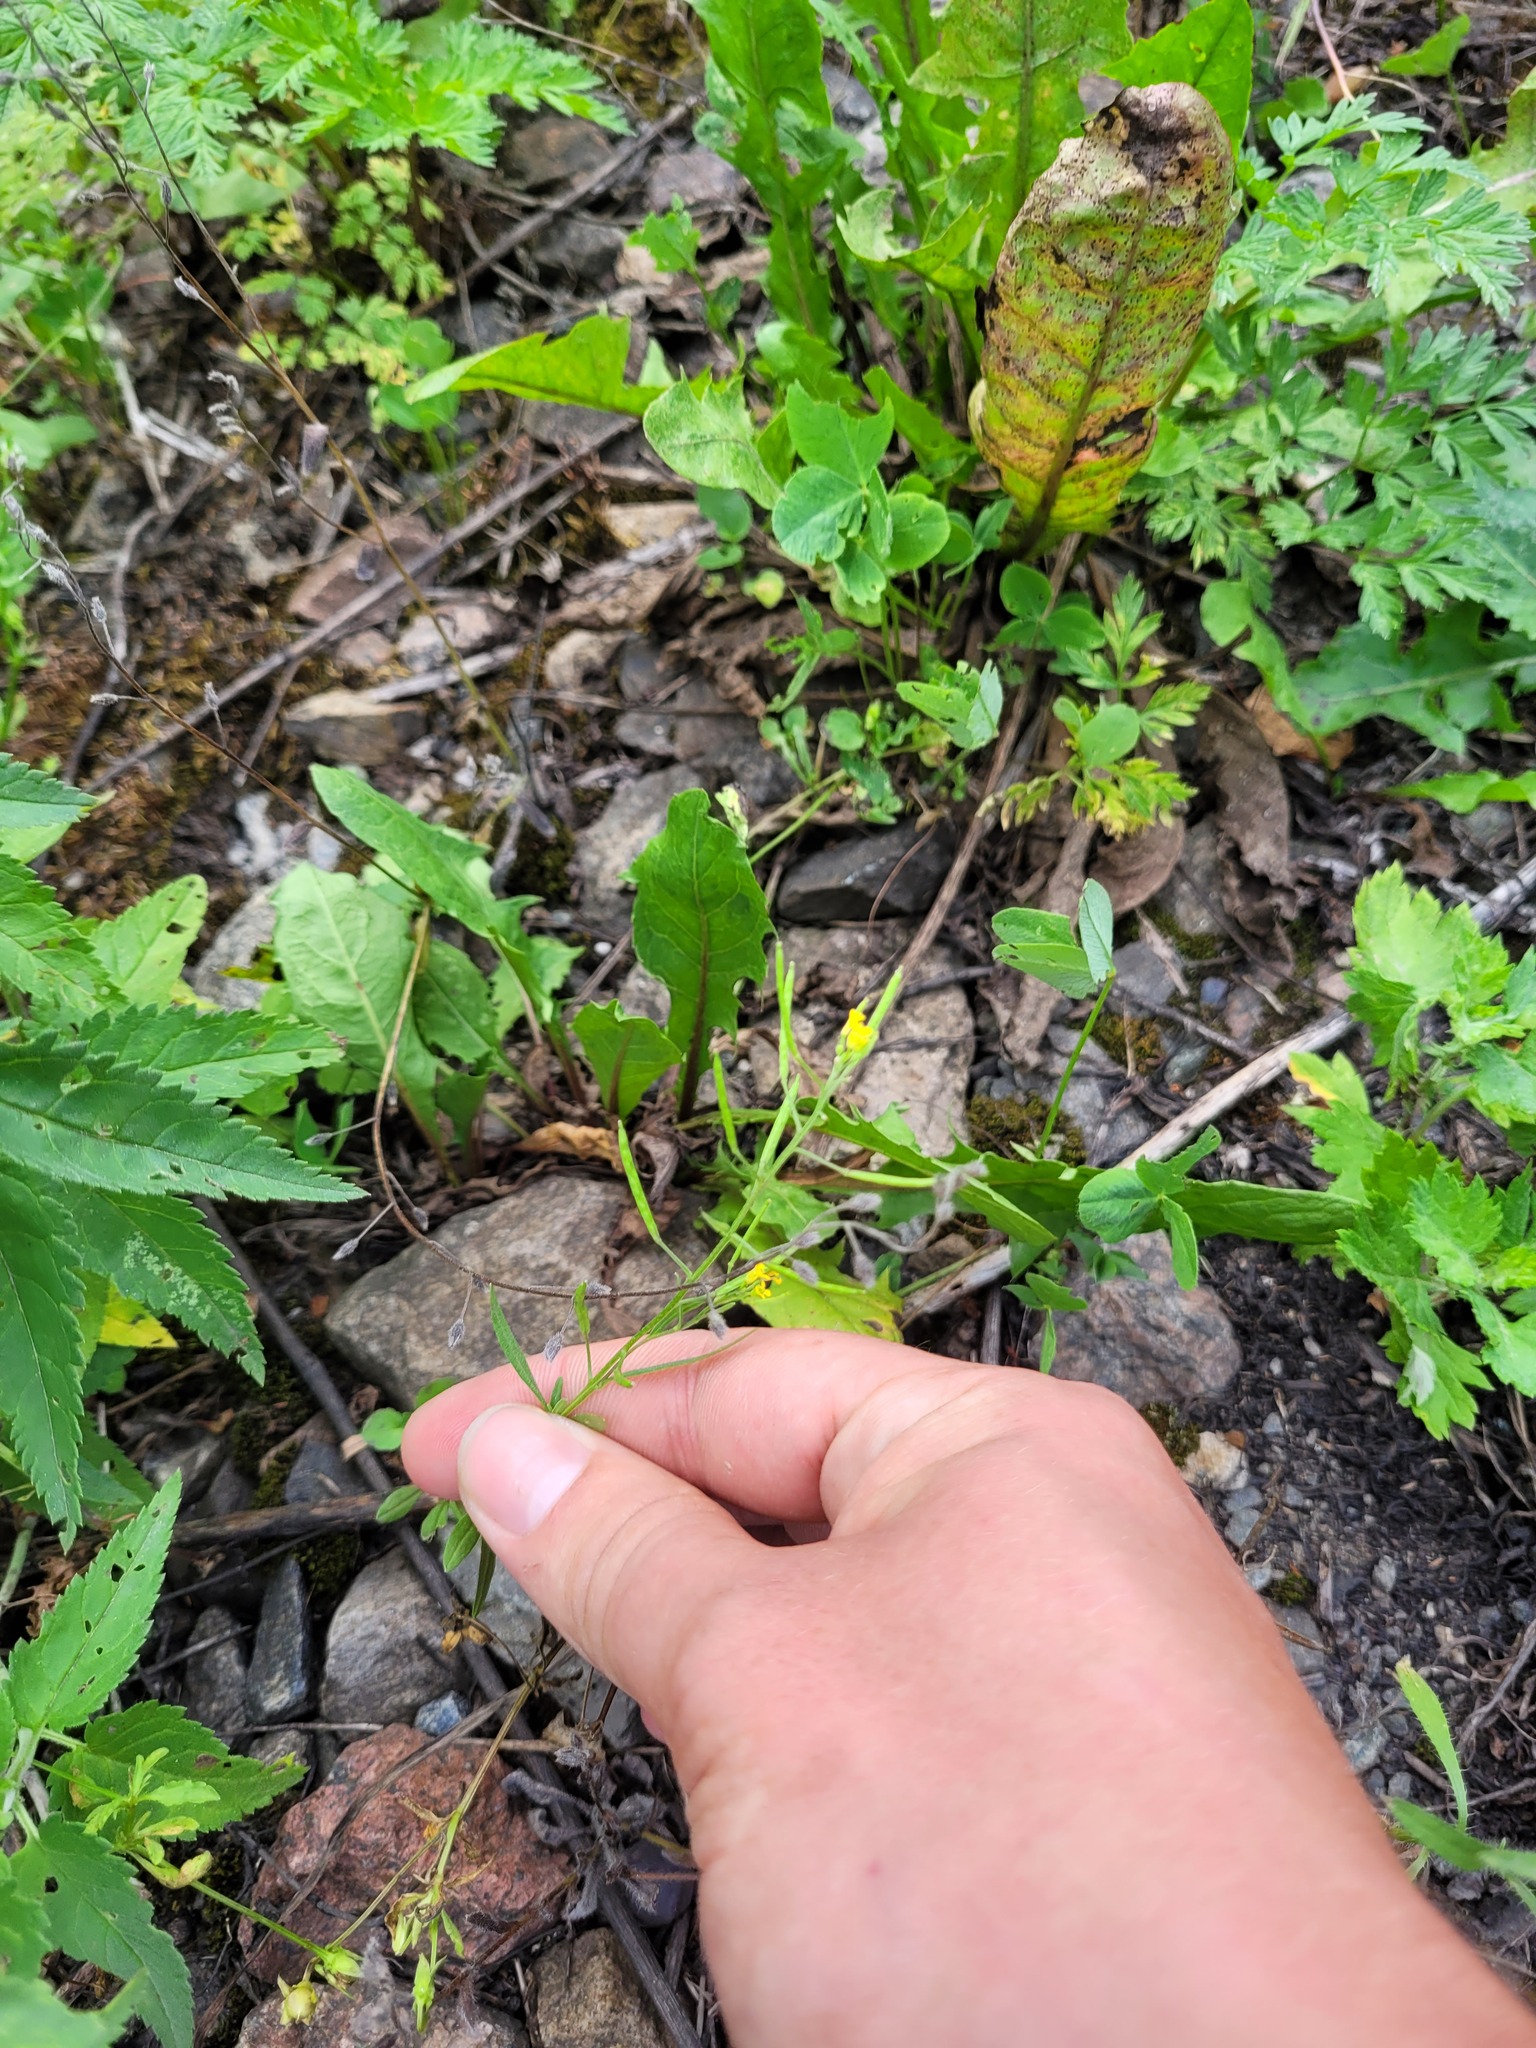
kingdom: Plantae
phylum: Tracheophyta
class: Magnoliopsida
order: Brassicales
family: Brassicaceae
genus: Erysimum
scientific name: Erysimum cheiranthoides
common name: Treacle mustard
